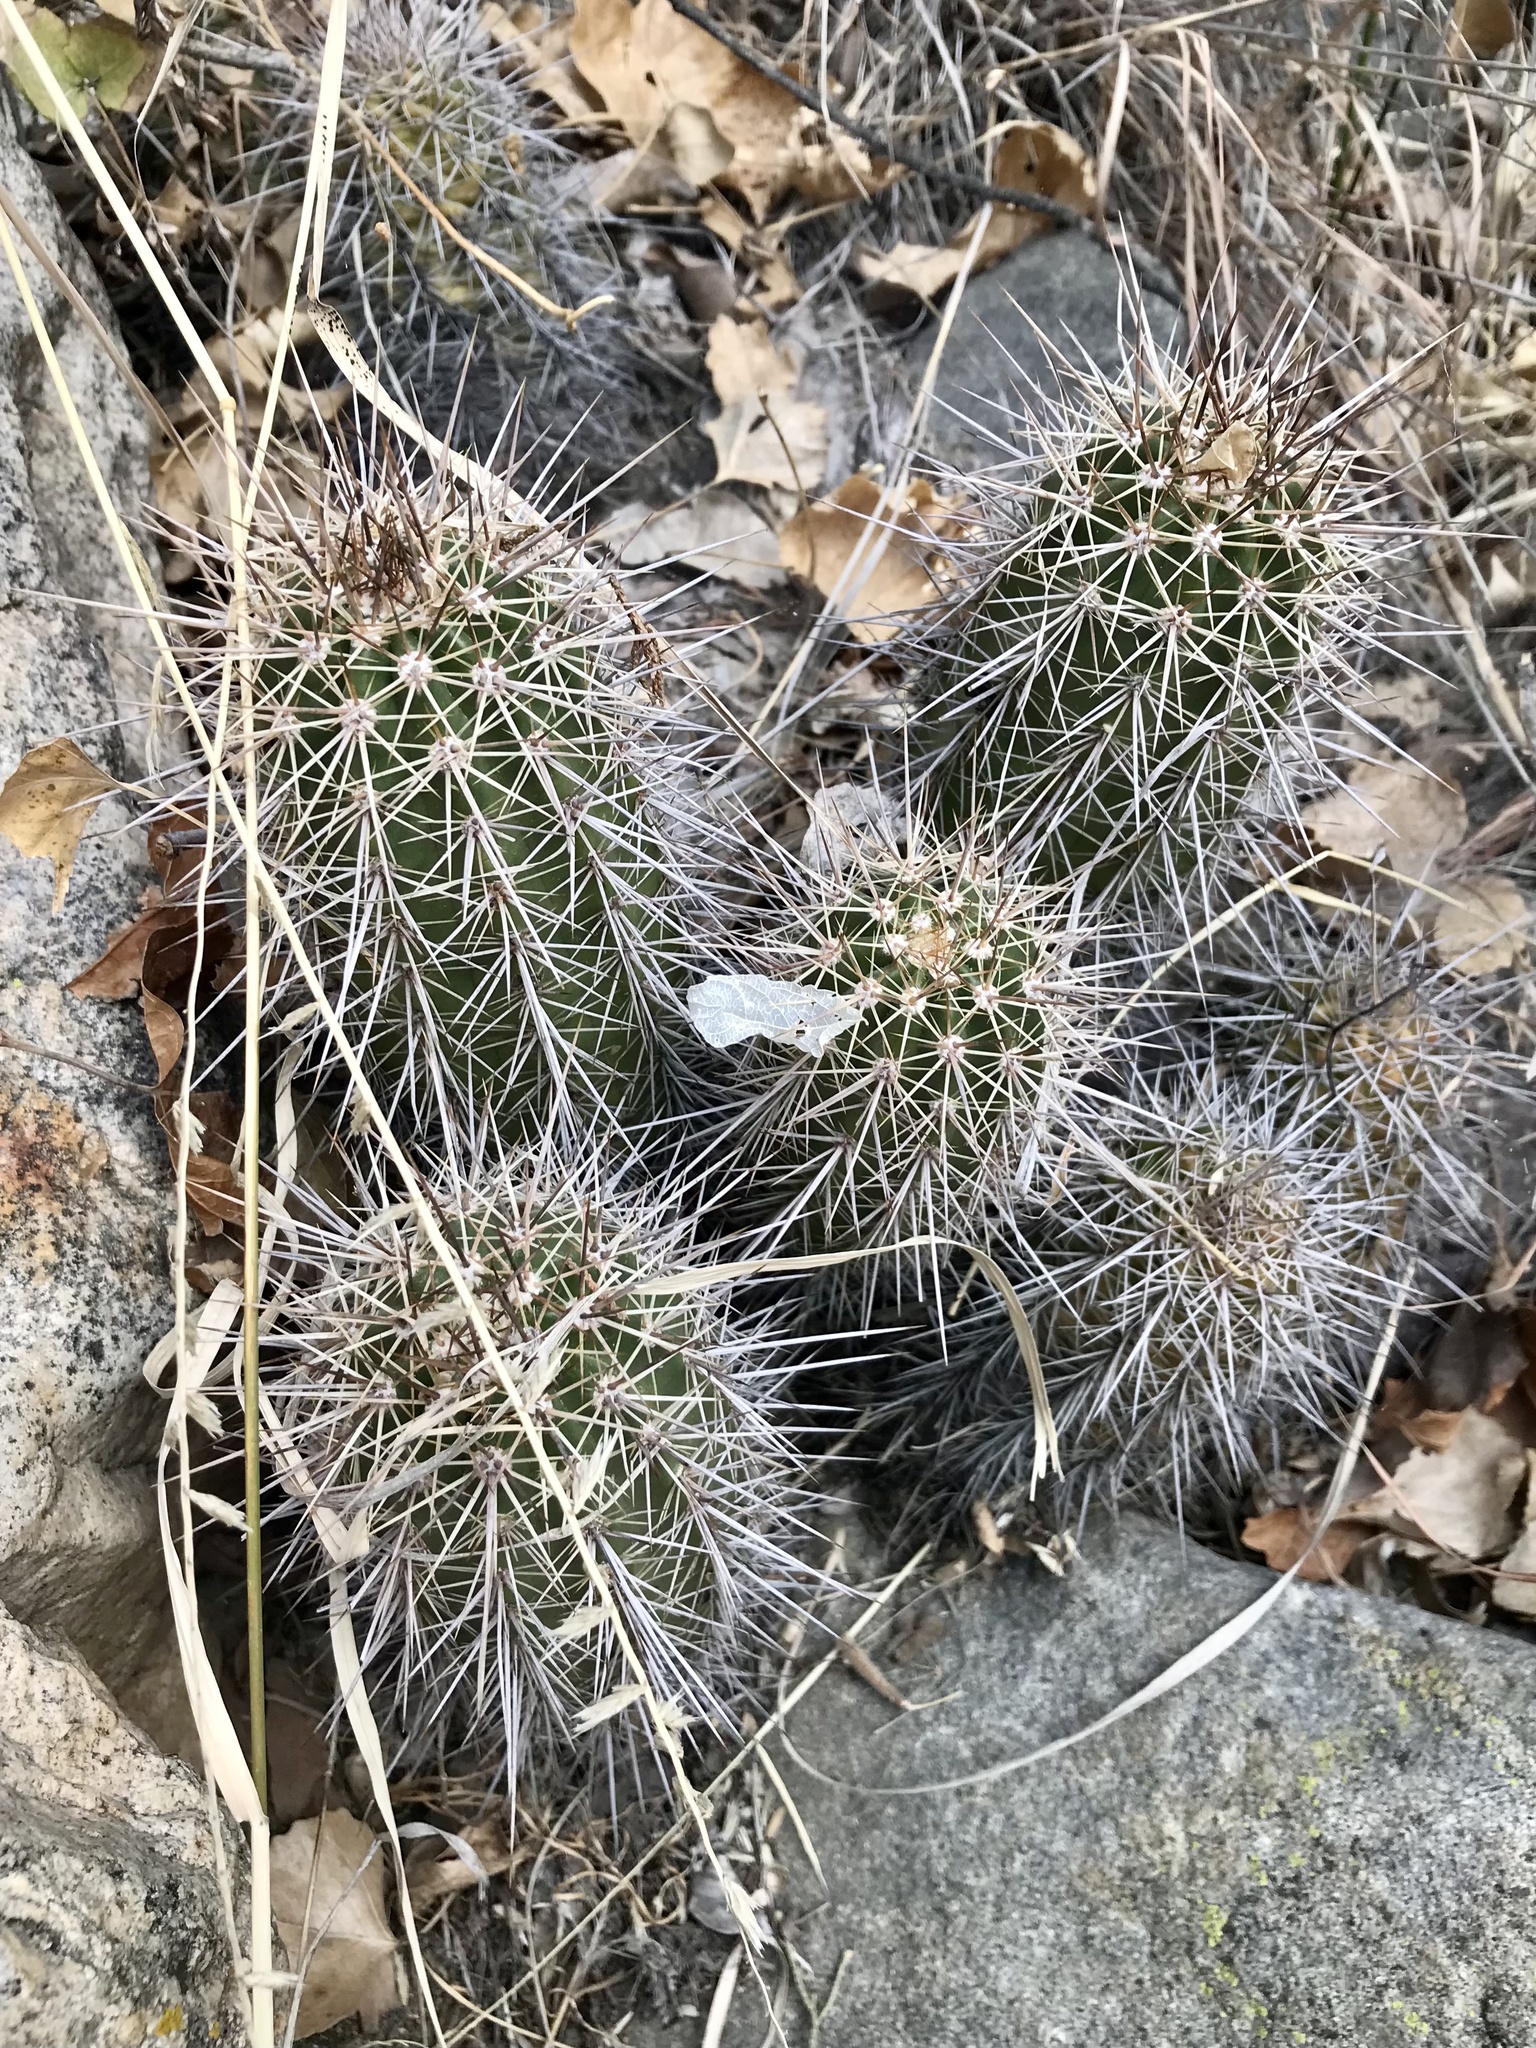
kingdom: Plantae
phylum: Tracheophyta
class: Magnoliopsida
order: Caryophyllales
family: Cactaceae
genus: Echinocereus
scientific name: Echinocereus coccineus
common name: Scarlet hedgehog cactus
